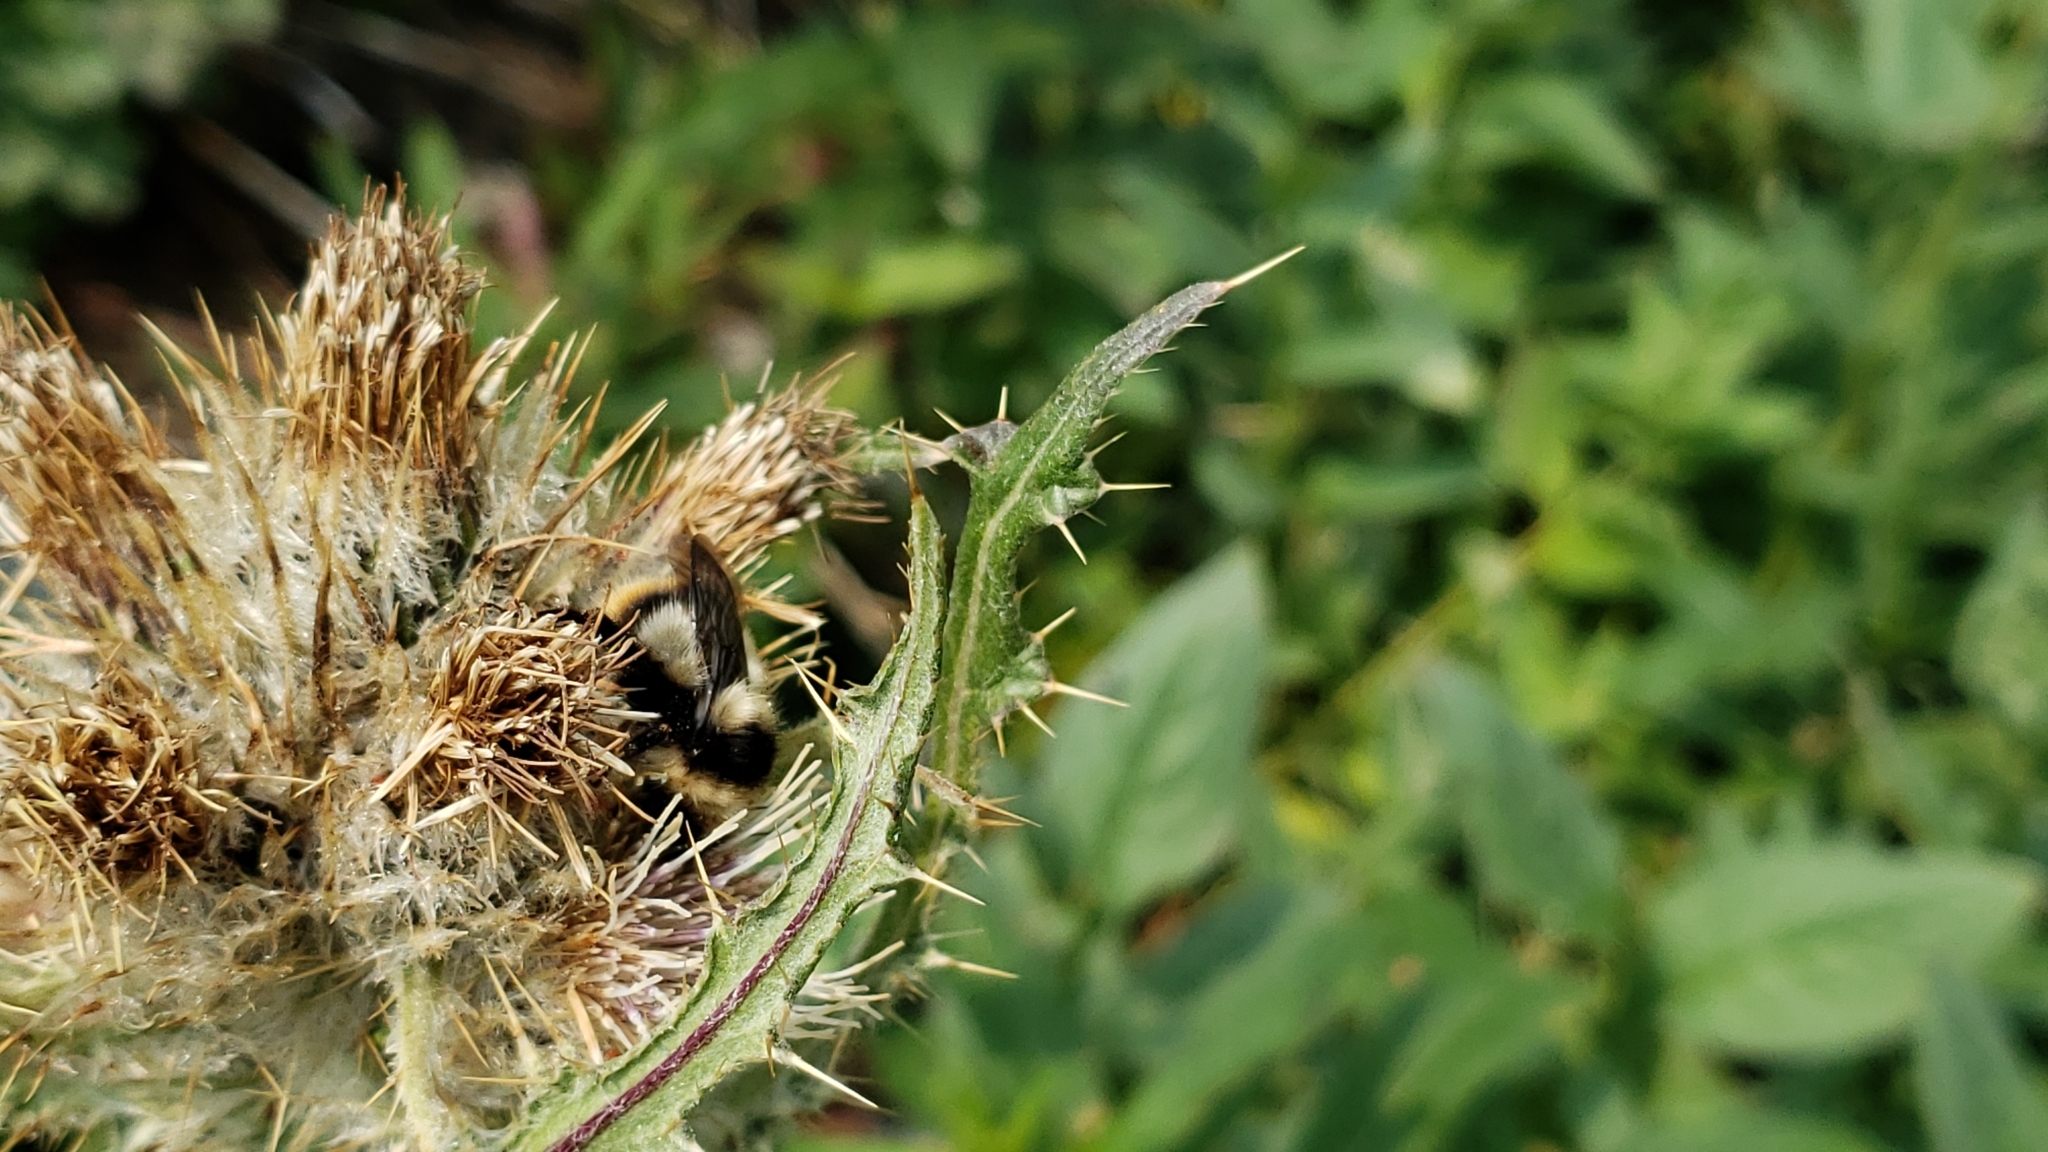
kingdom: Animalia
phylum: Arthropoda
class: Insecta
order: Hymenoptera
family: Apidae
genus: Bombus
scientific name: Bombus frigidus
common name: Frigid bumble bee
